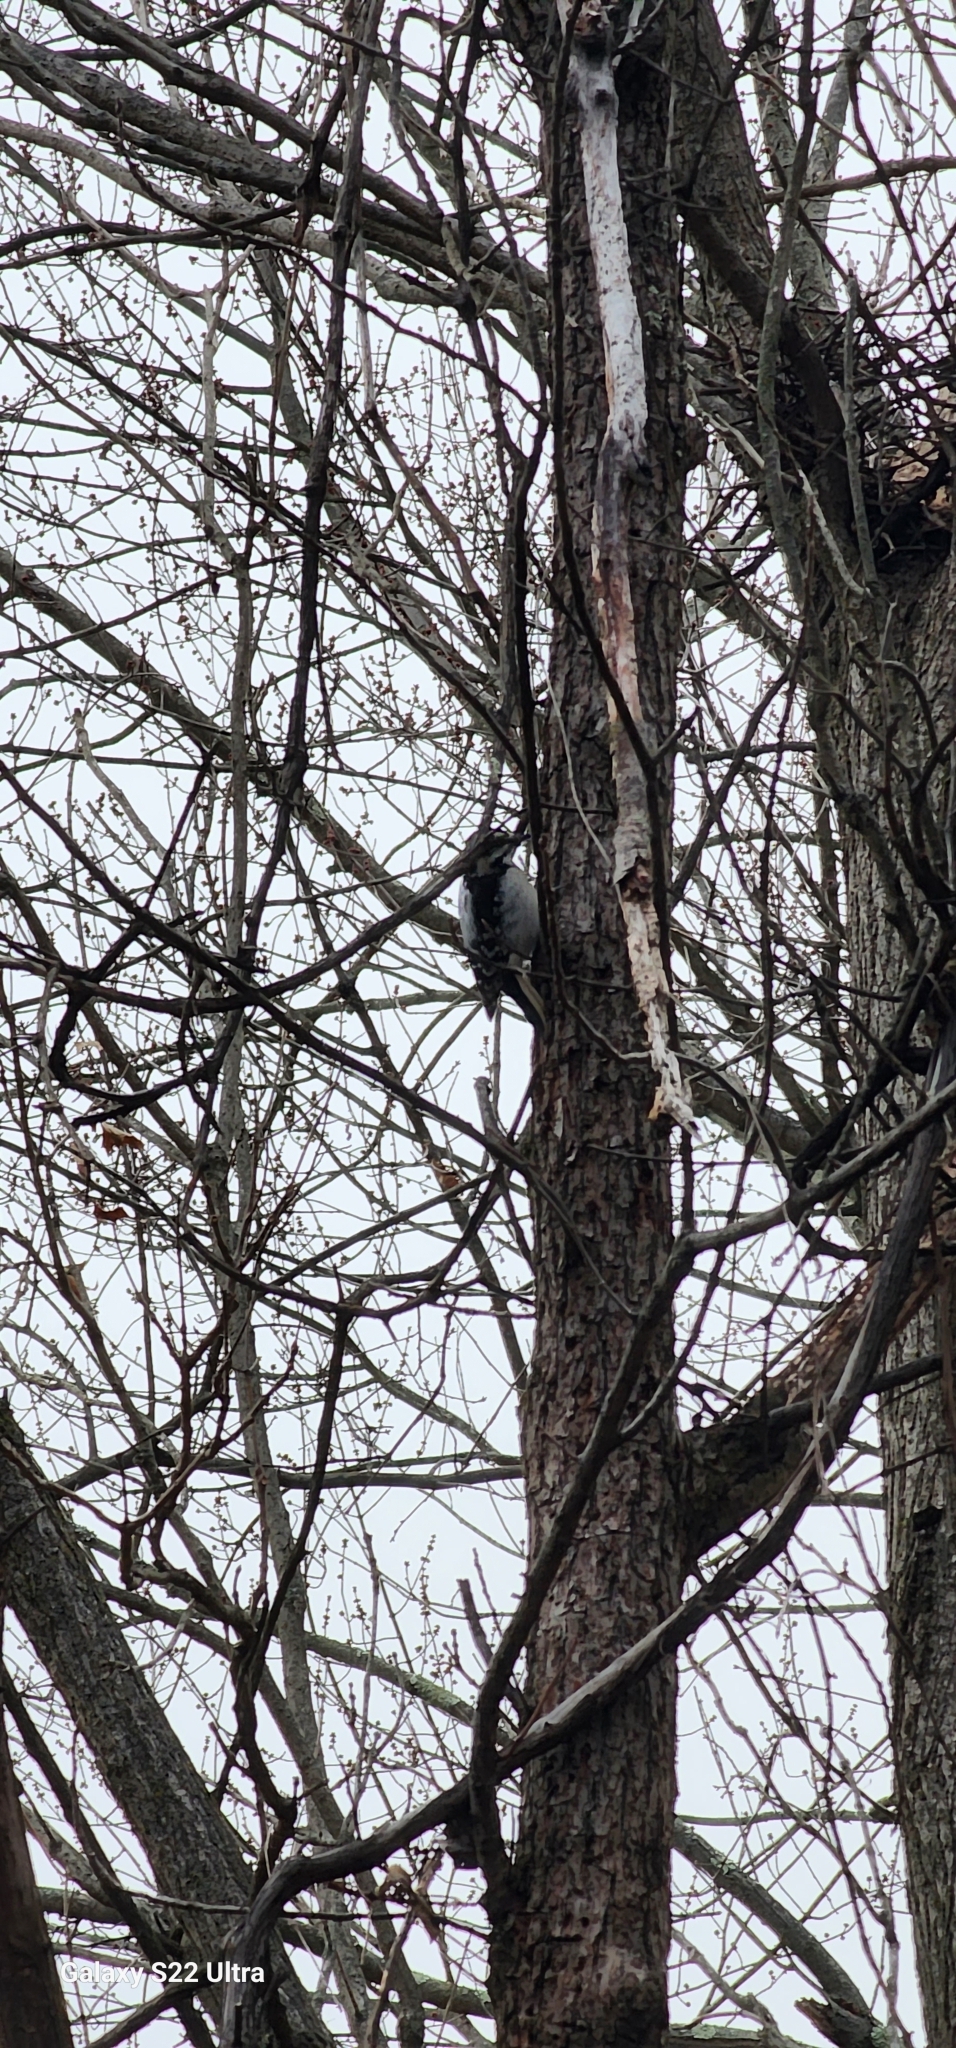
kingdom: Animalia
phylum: Chordata
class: Aves
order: Piciformes
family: Picidae
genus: Leuconotopicus
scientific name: Leuconotopicus villosus
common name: Hairy woodpecker
